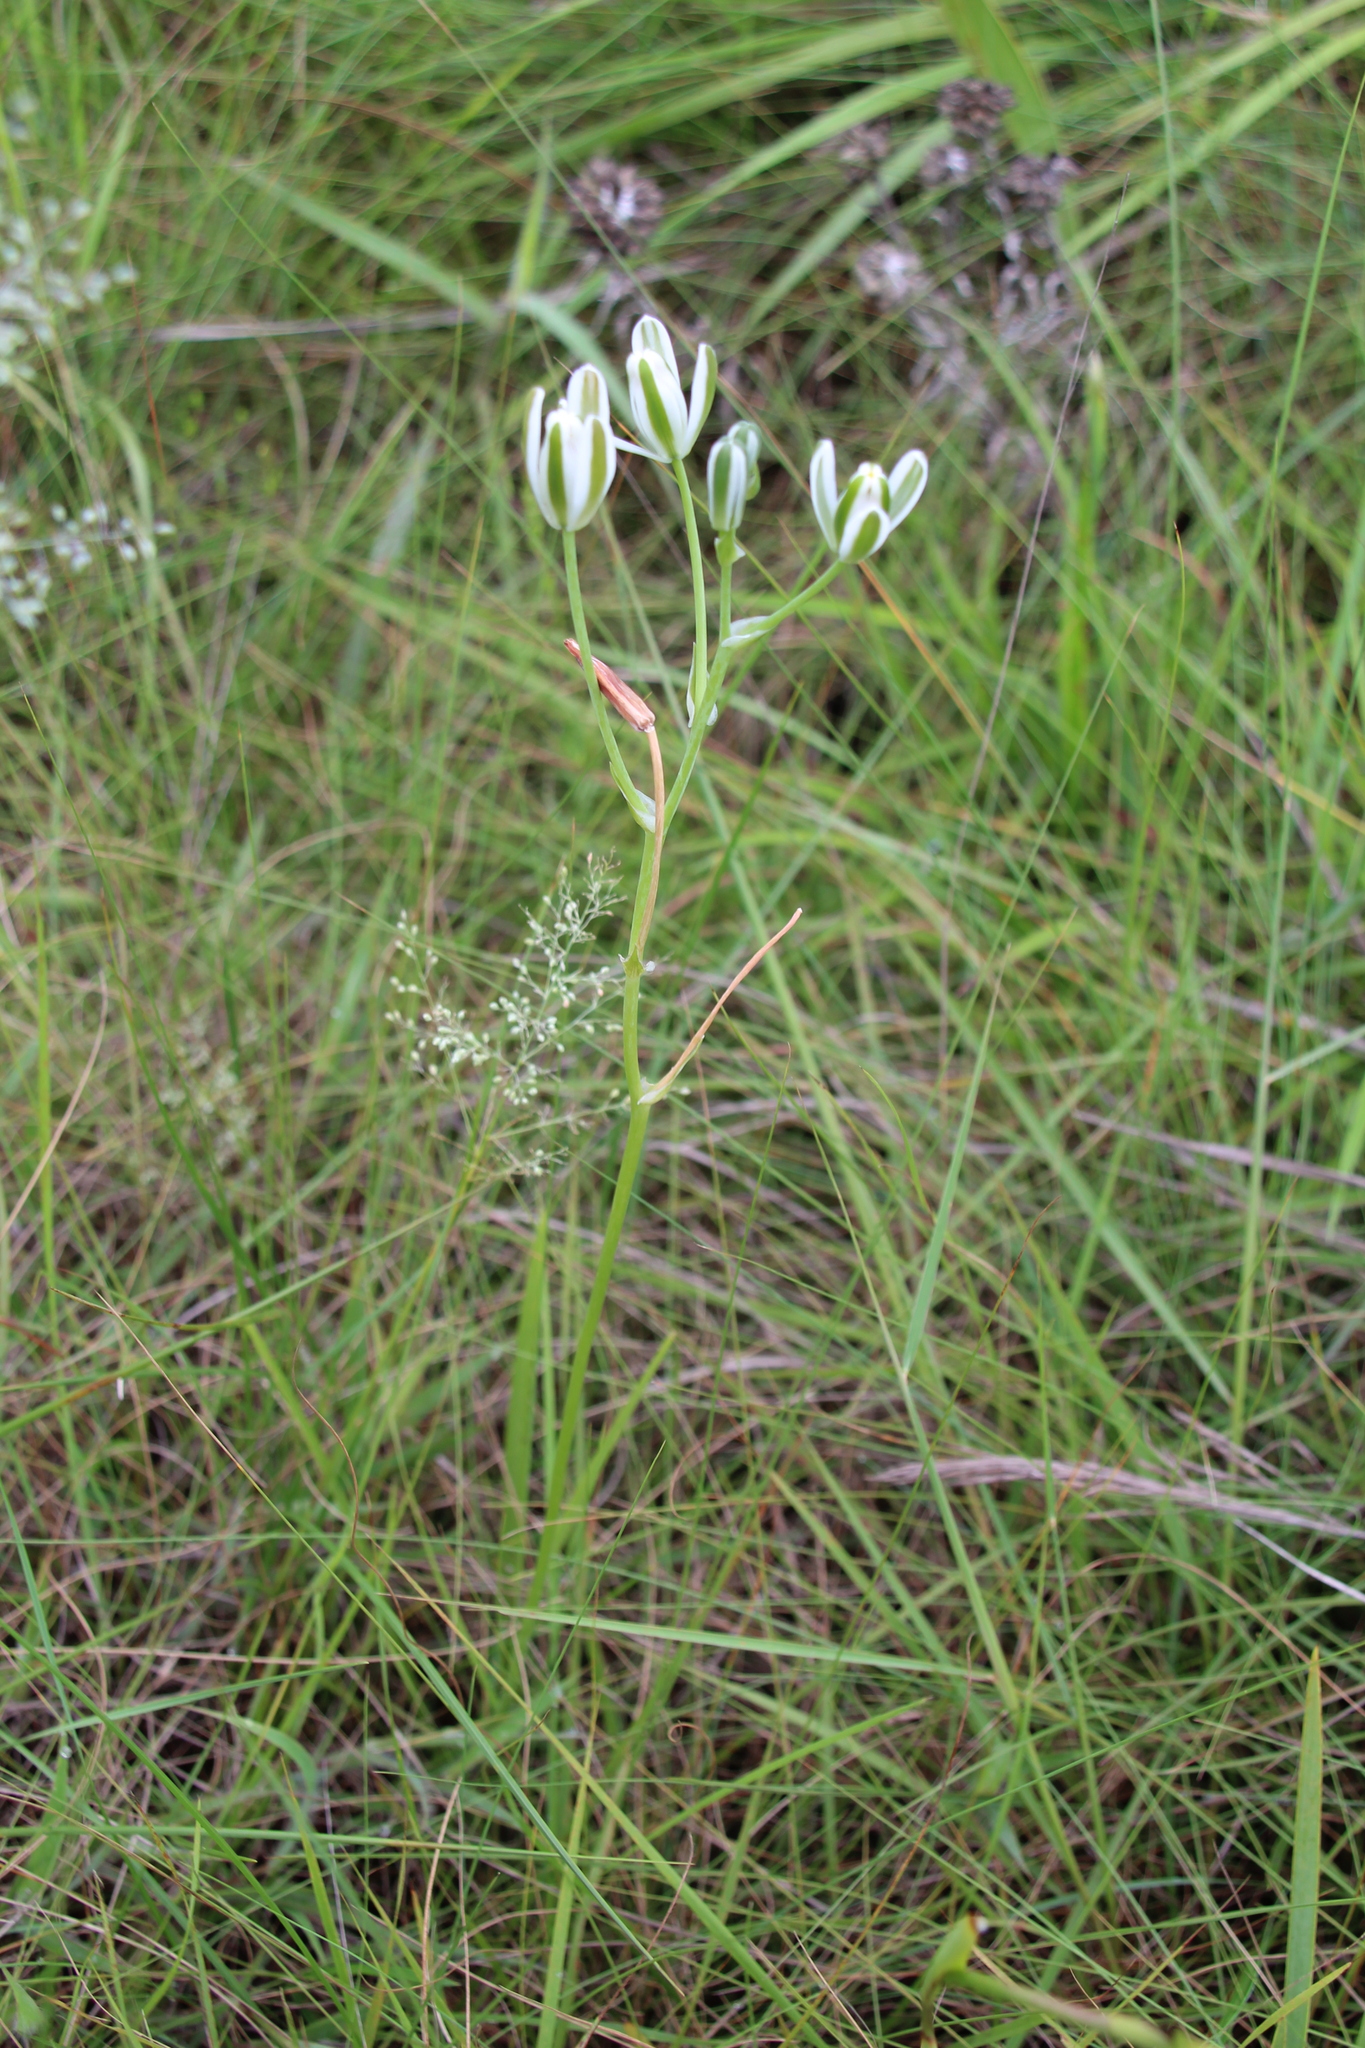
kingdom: Plantae
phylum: Tracheophyta
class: Liliopsida
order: Asparagales
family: Asparagaceae
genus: Albuca
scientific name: Albuca setosa
